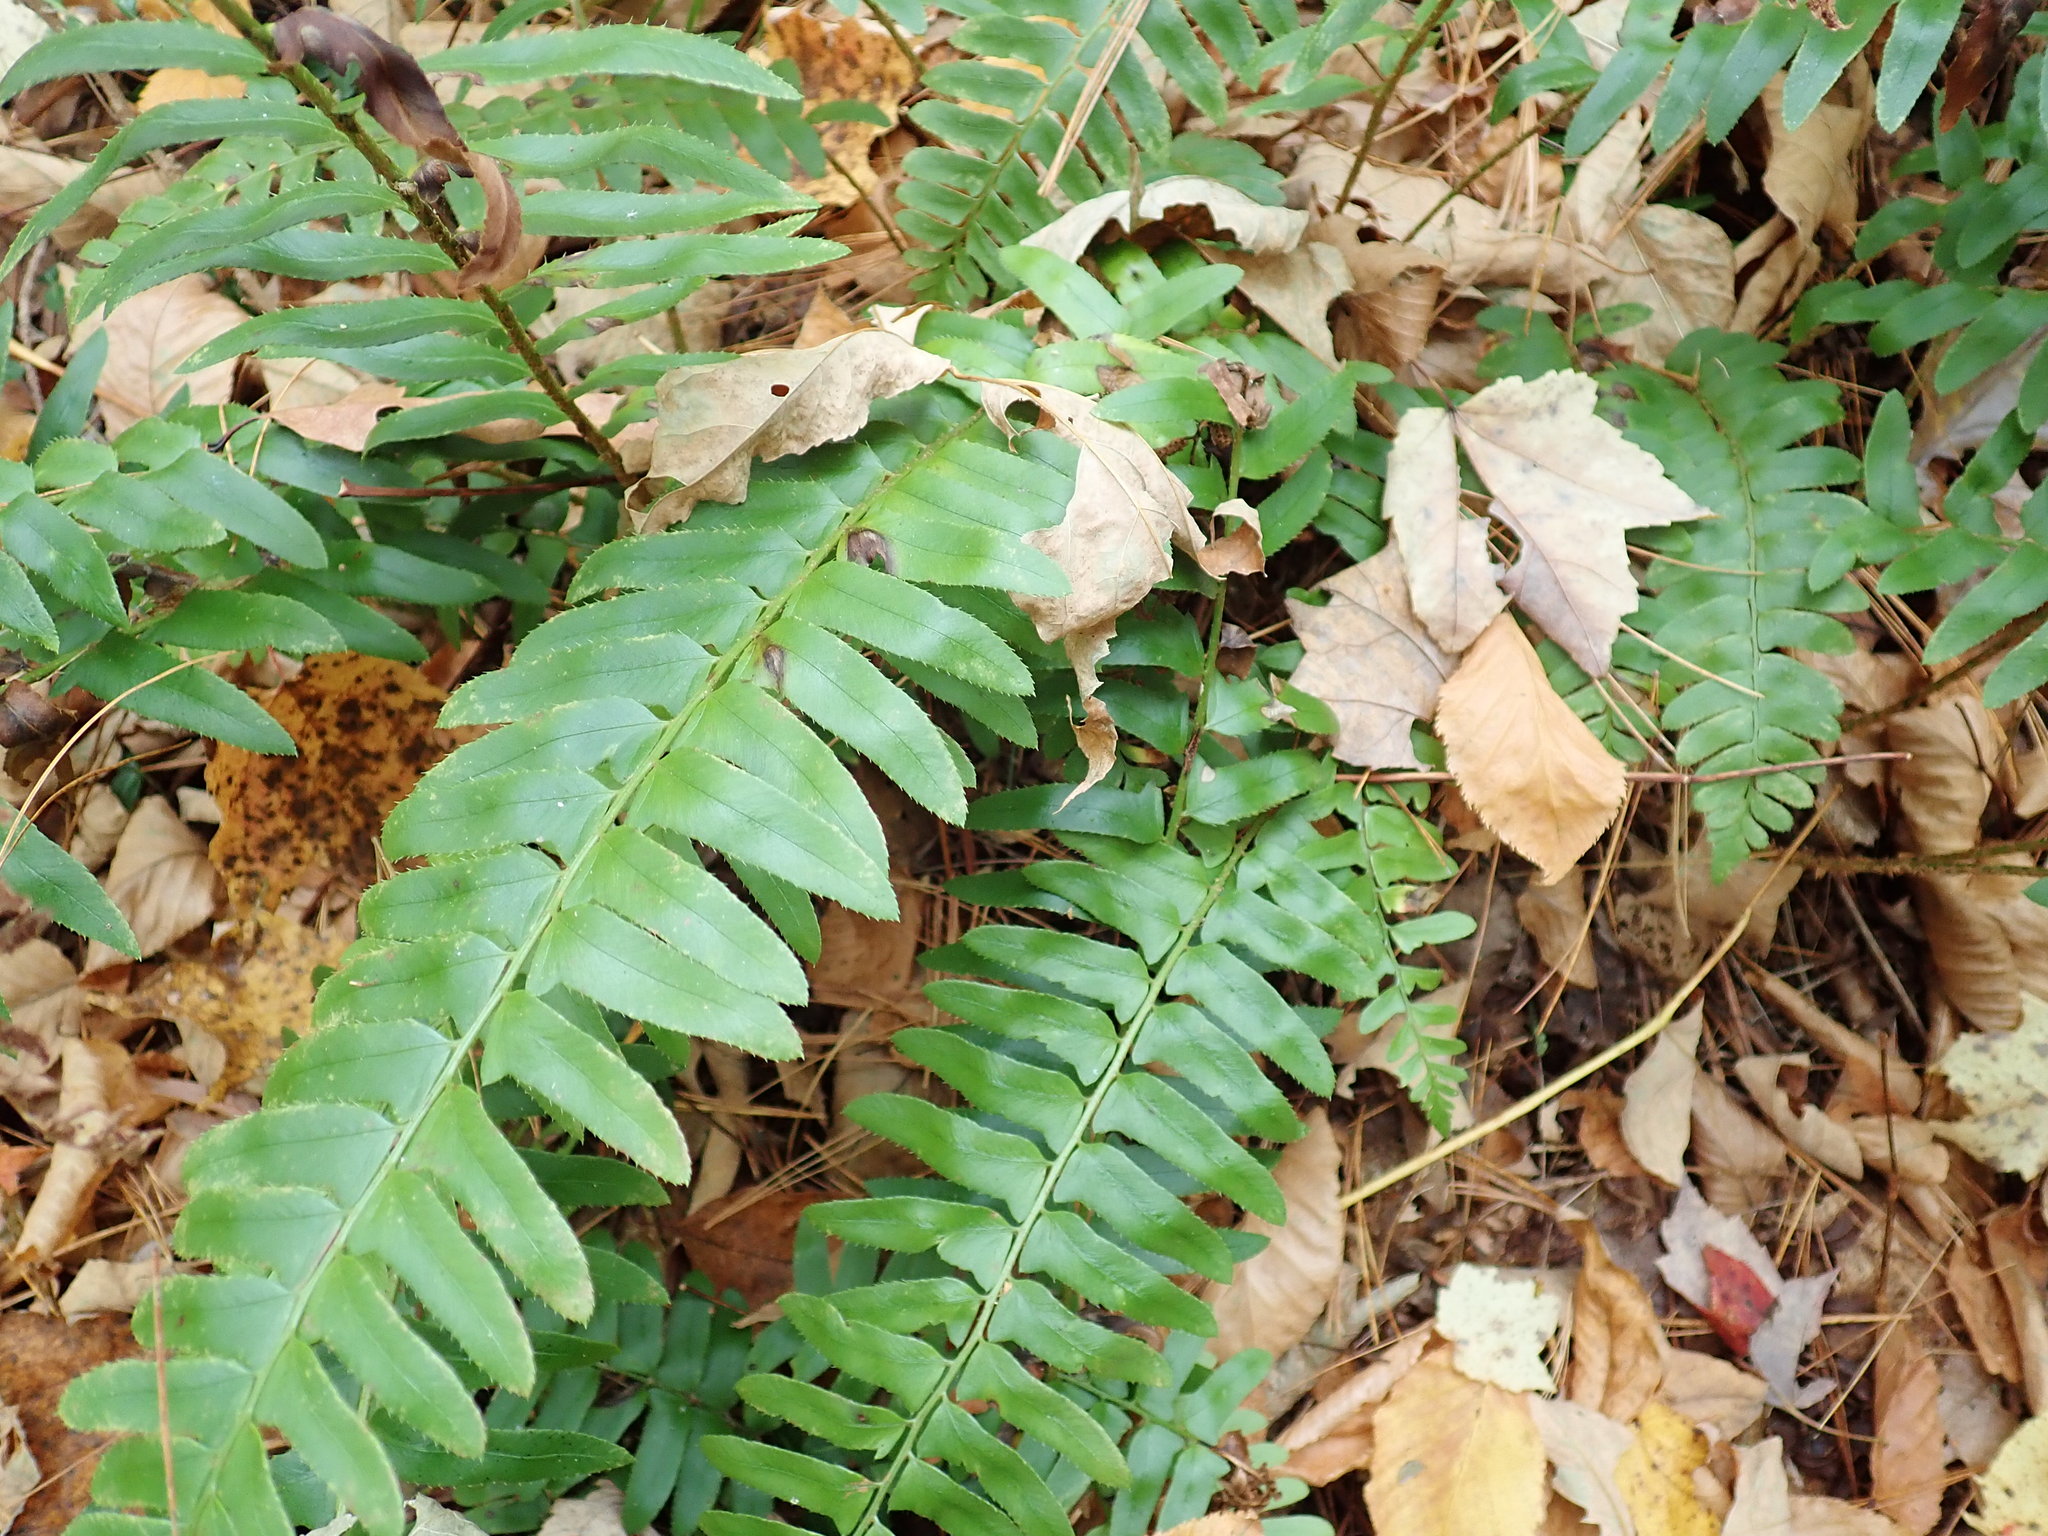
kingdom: Plantae
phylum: Tracheophyta
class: Polypodiopsida
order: Polypodiales
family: Dryopteridaceae
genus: Polystichum
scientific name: Polystichum acrostichoides
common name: Christmas fern
